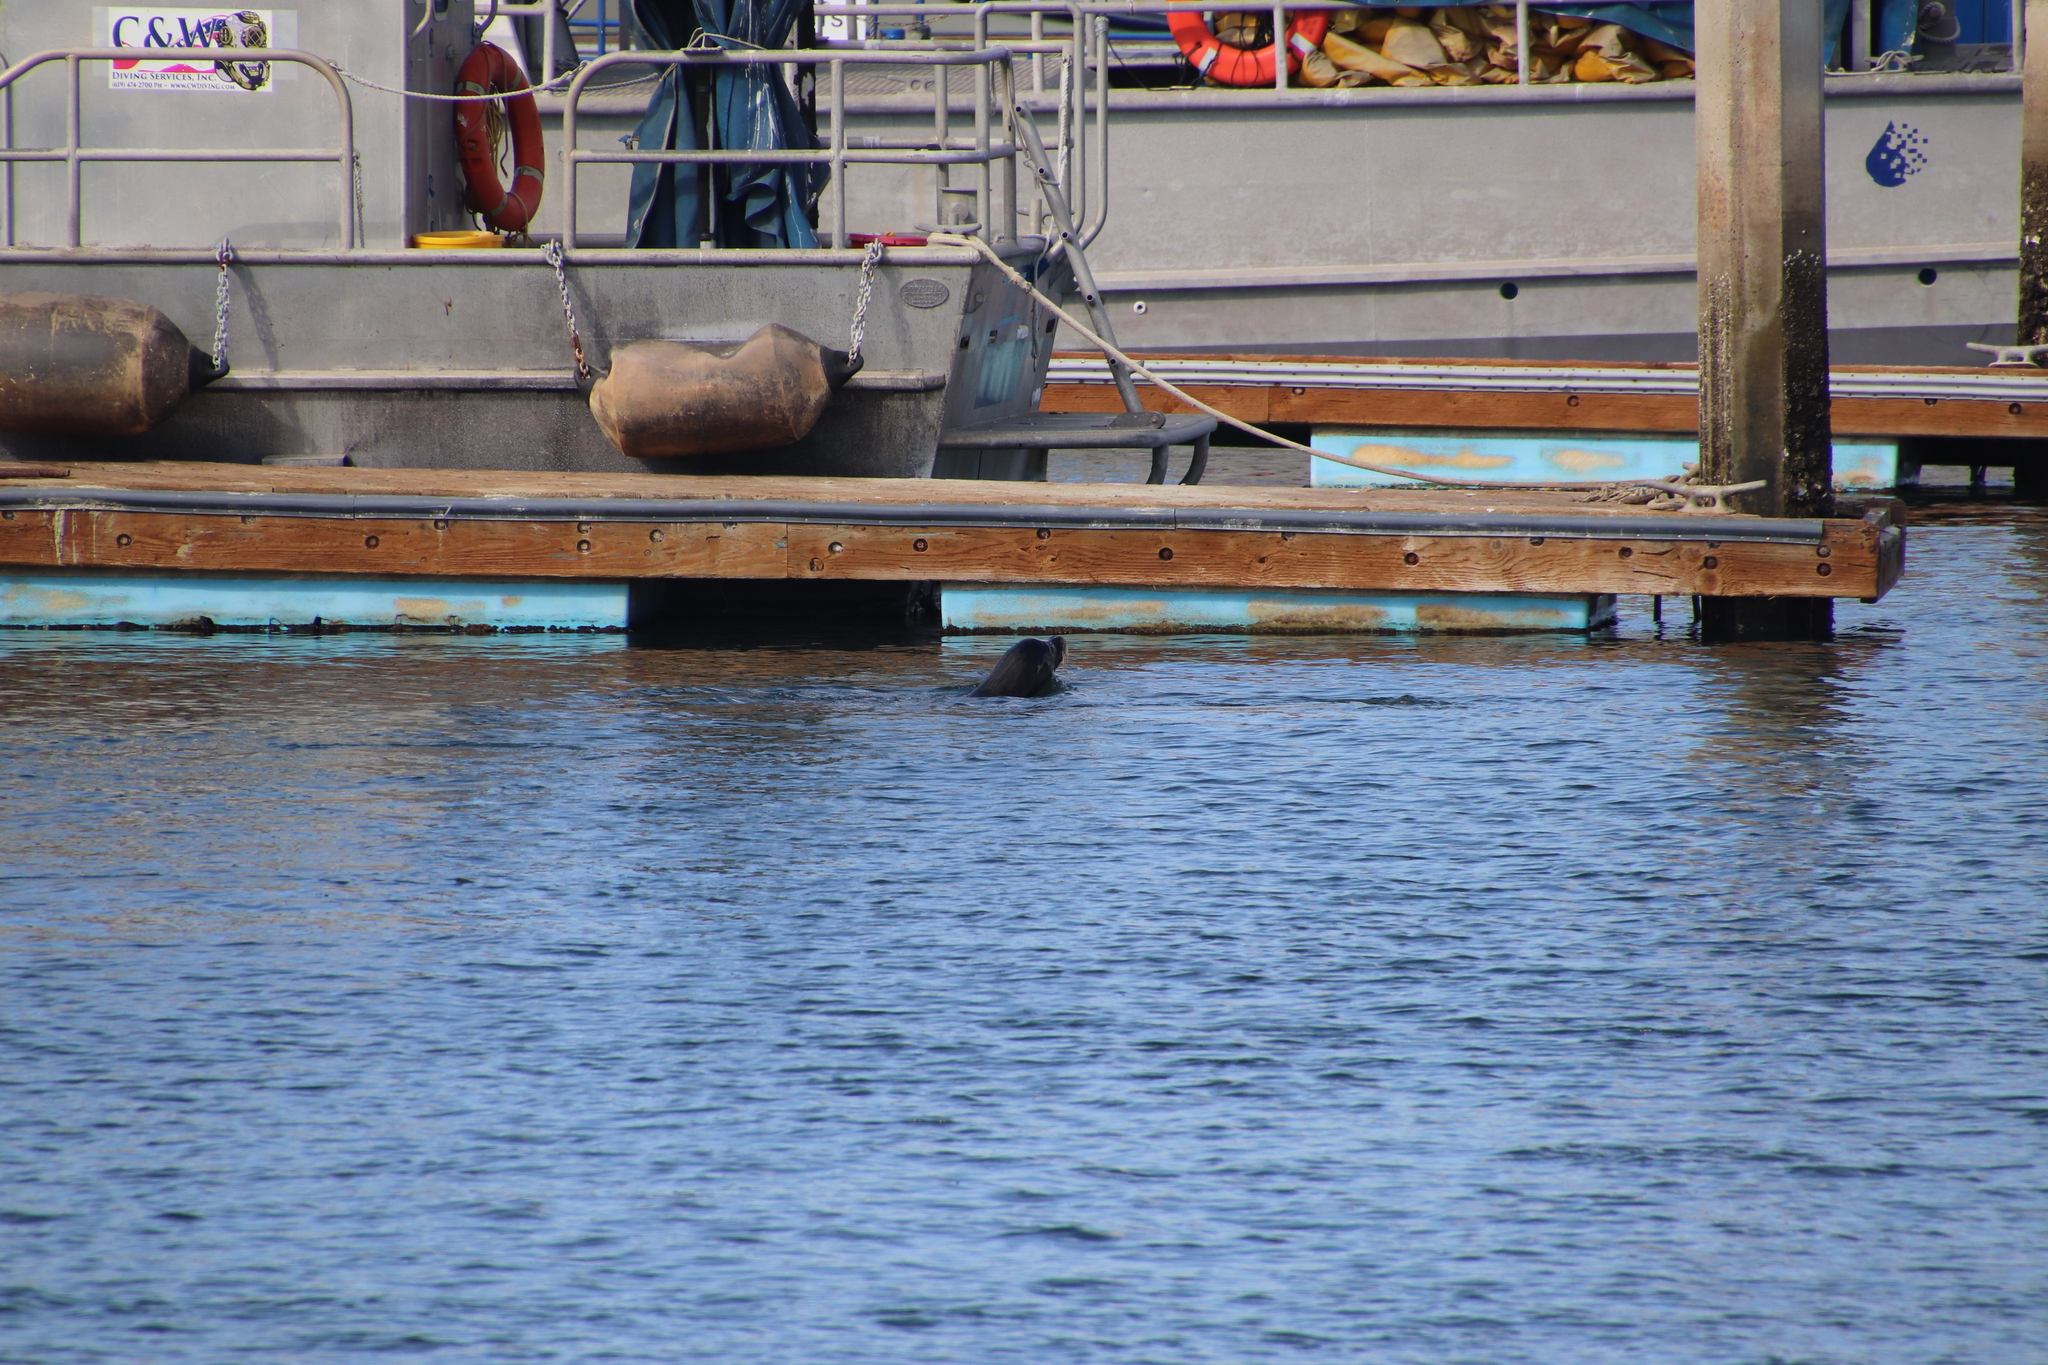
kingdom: Animalia
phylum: Chordata
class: Mammalia
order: Carnivora
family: Otariidae
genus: Zalophus
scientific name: Zalophus californianus
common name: California sea lion
